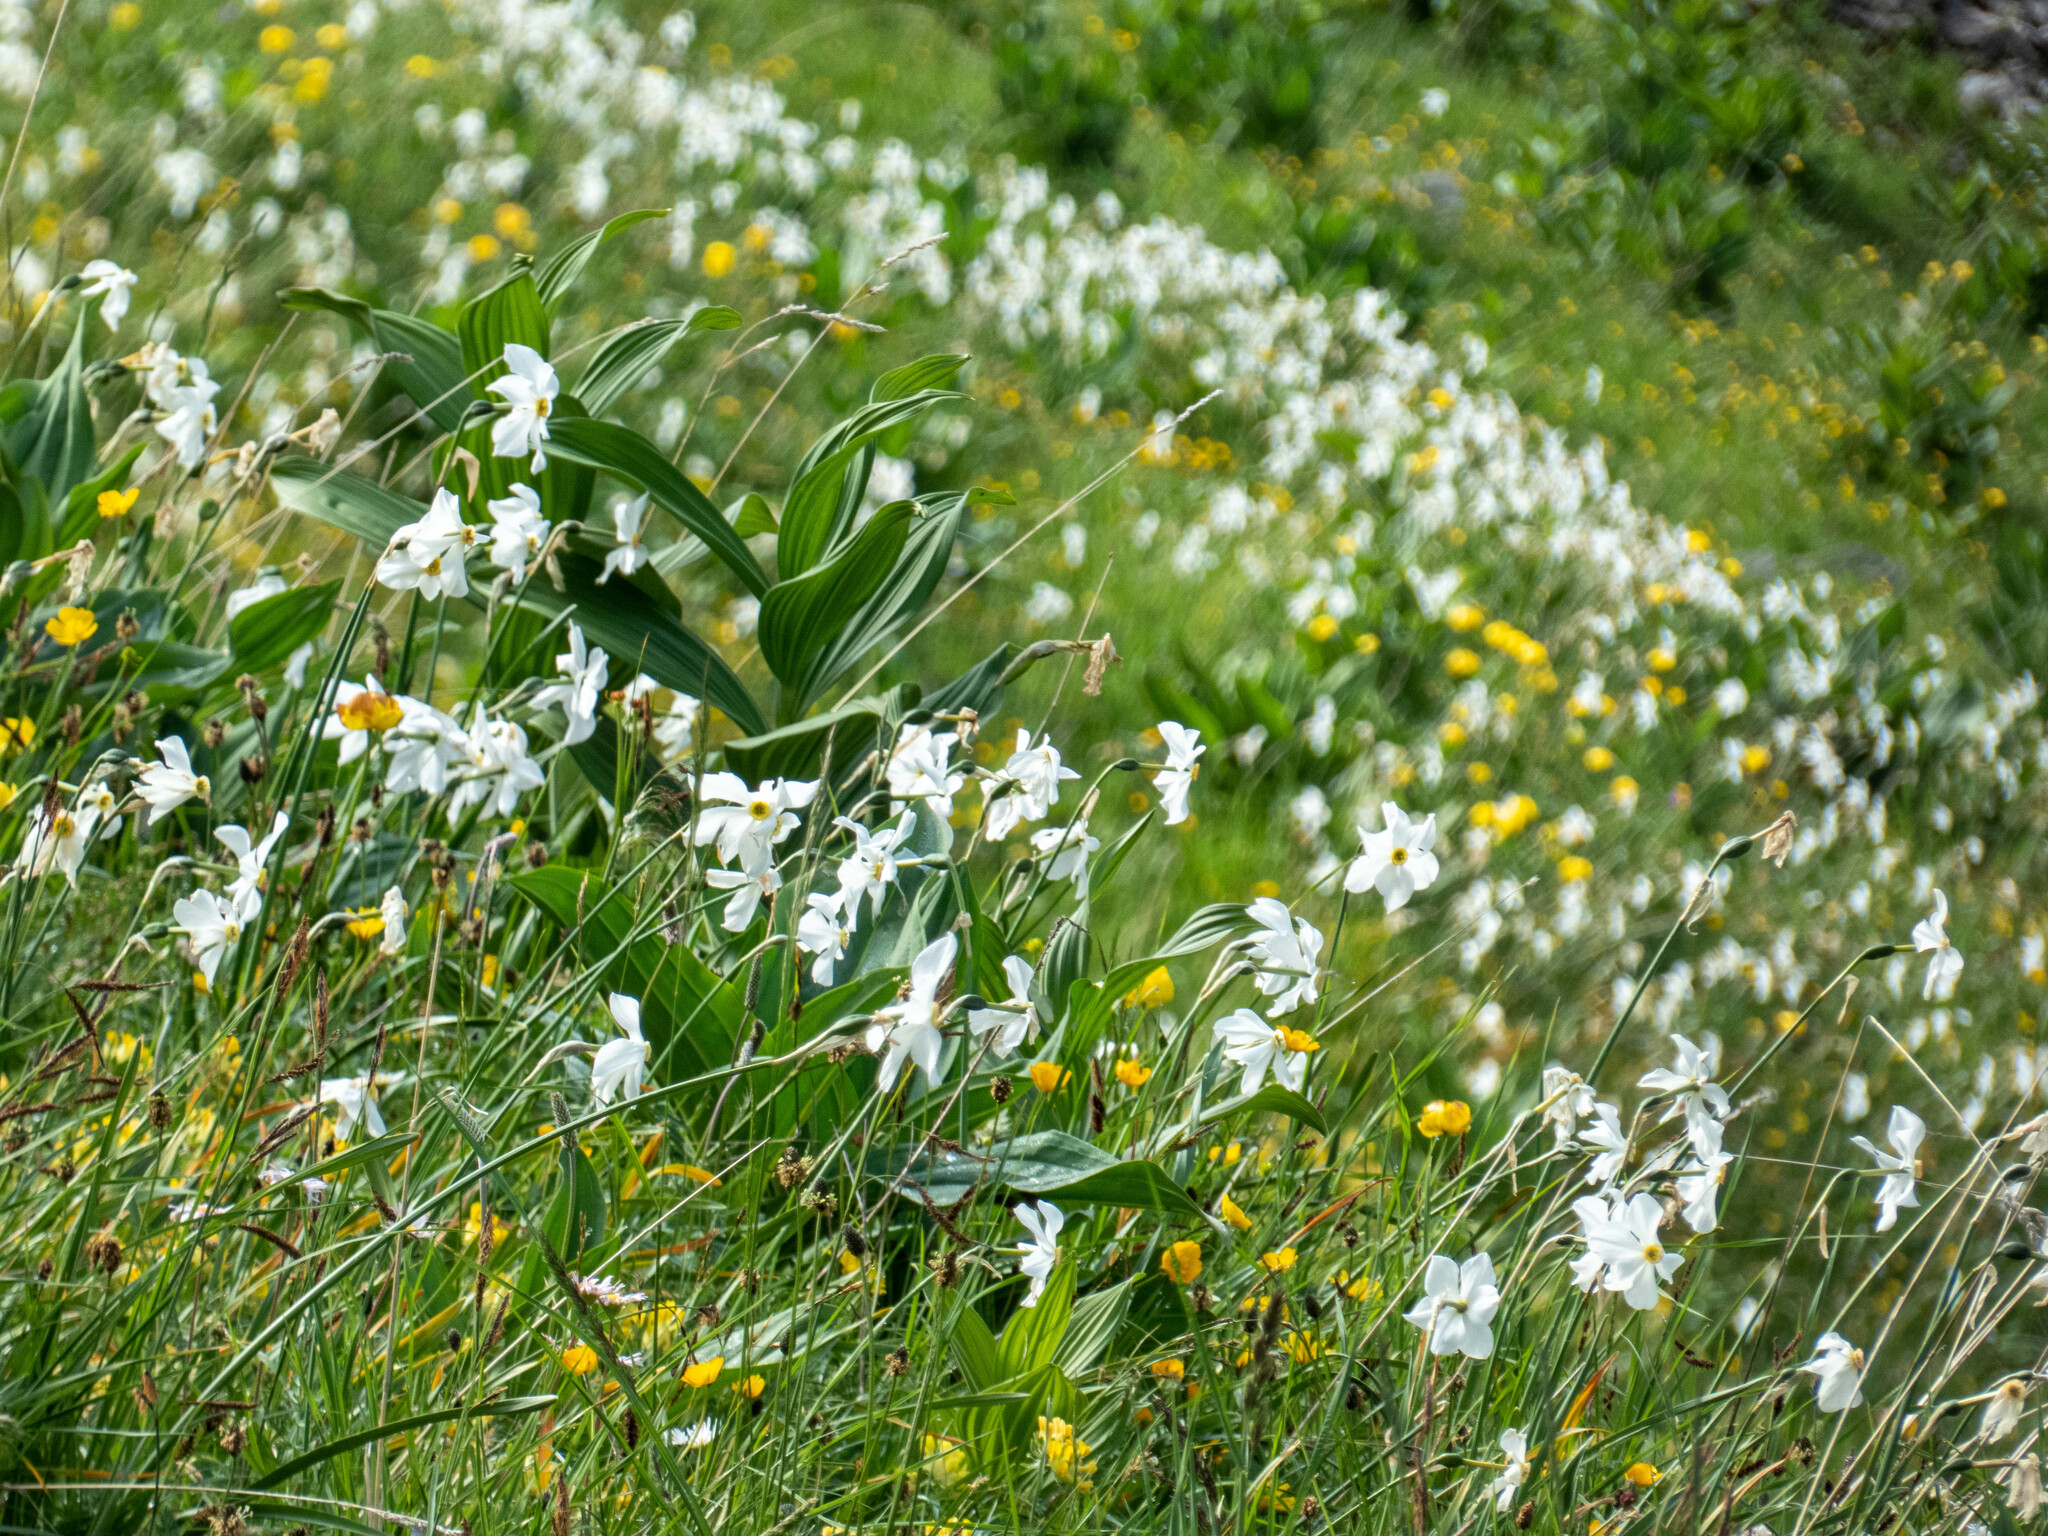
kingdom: Plantae
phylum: Tracheophyta
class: Liliopsida
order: Asparagales
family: Amaryllidaceae
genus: Narcissus
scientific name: Narcissus poeticus
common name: Pheasant's-eye daffodil
